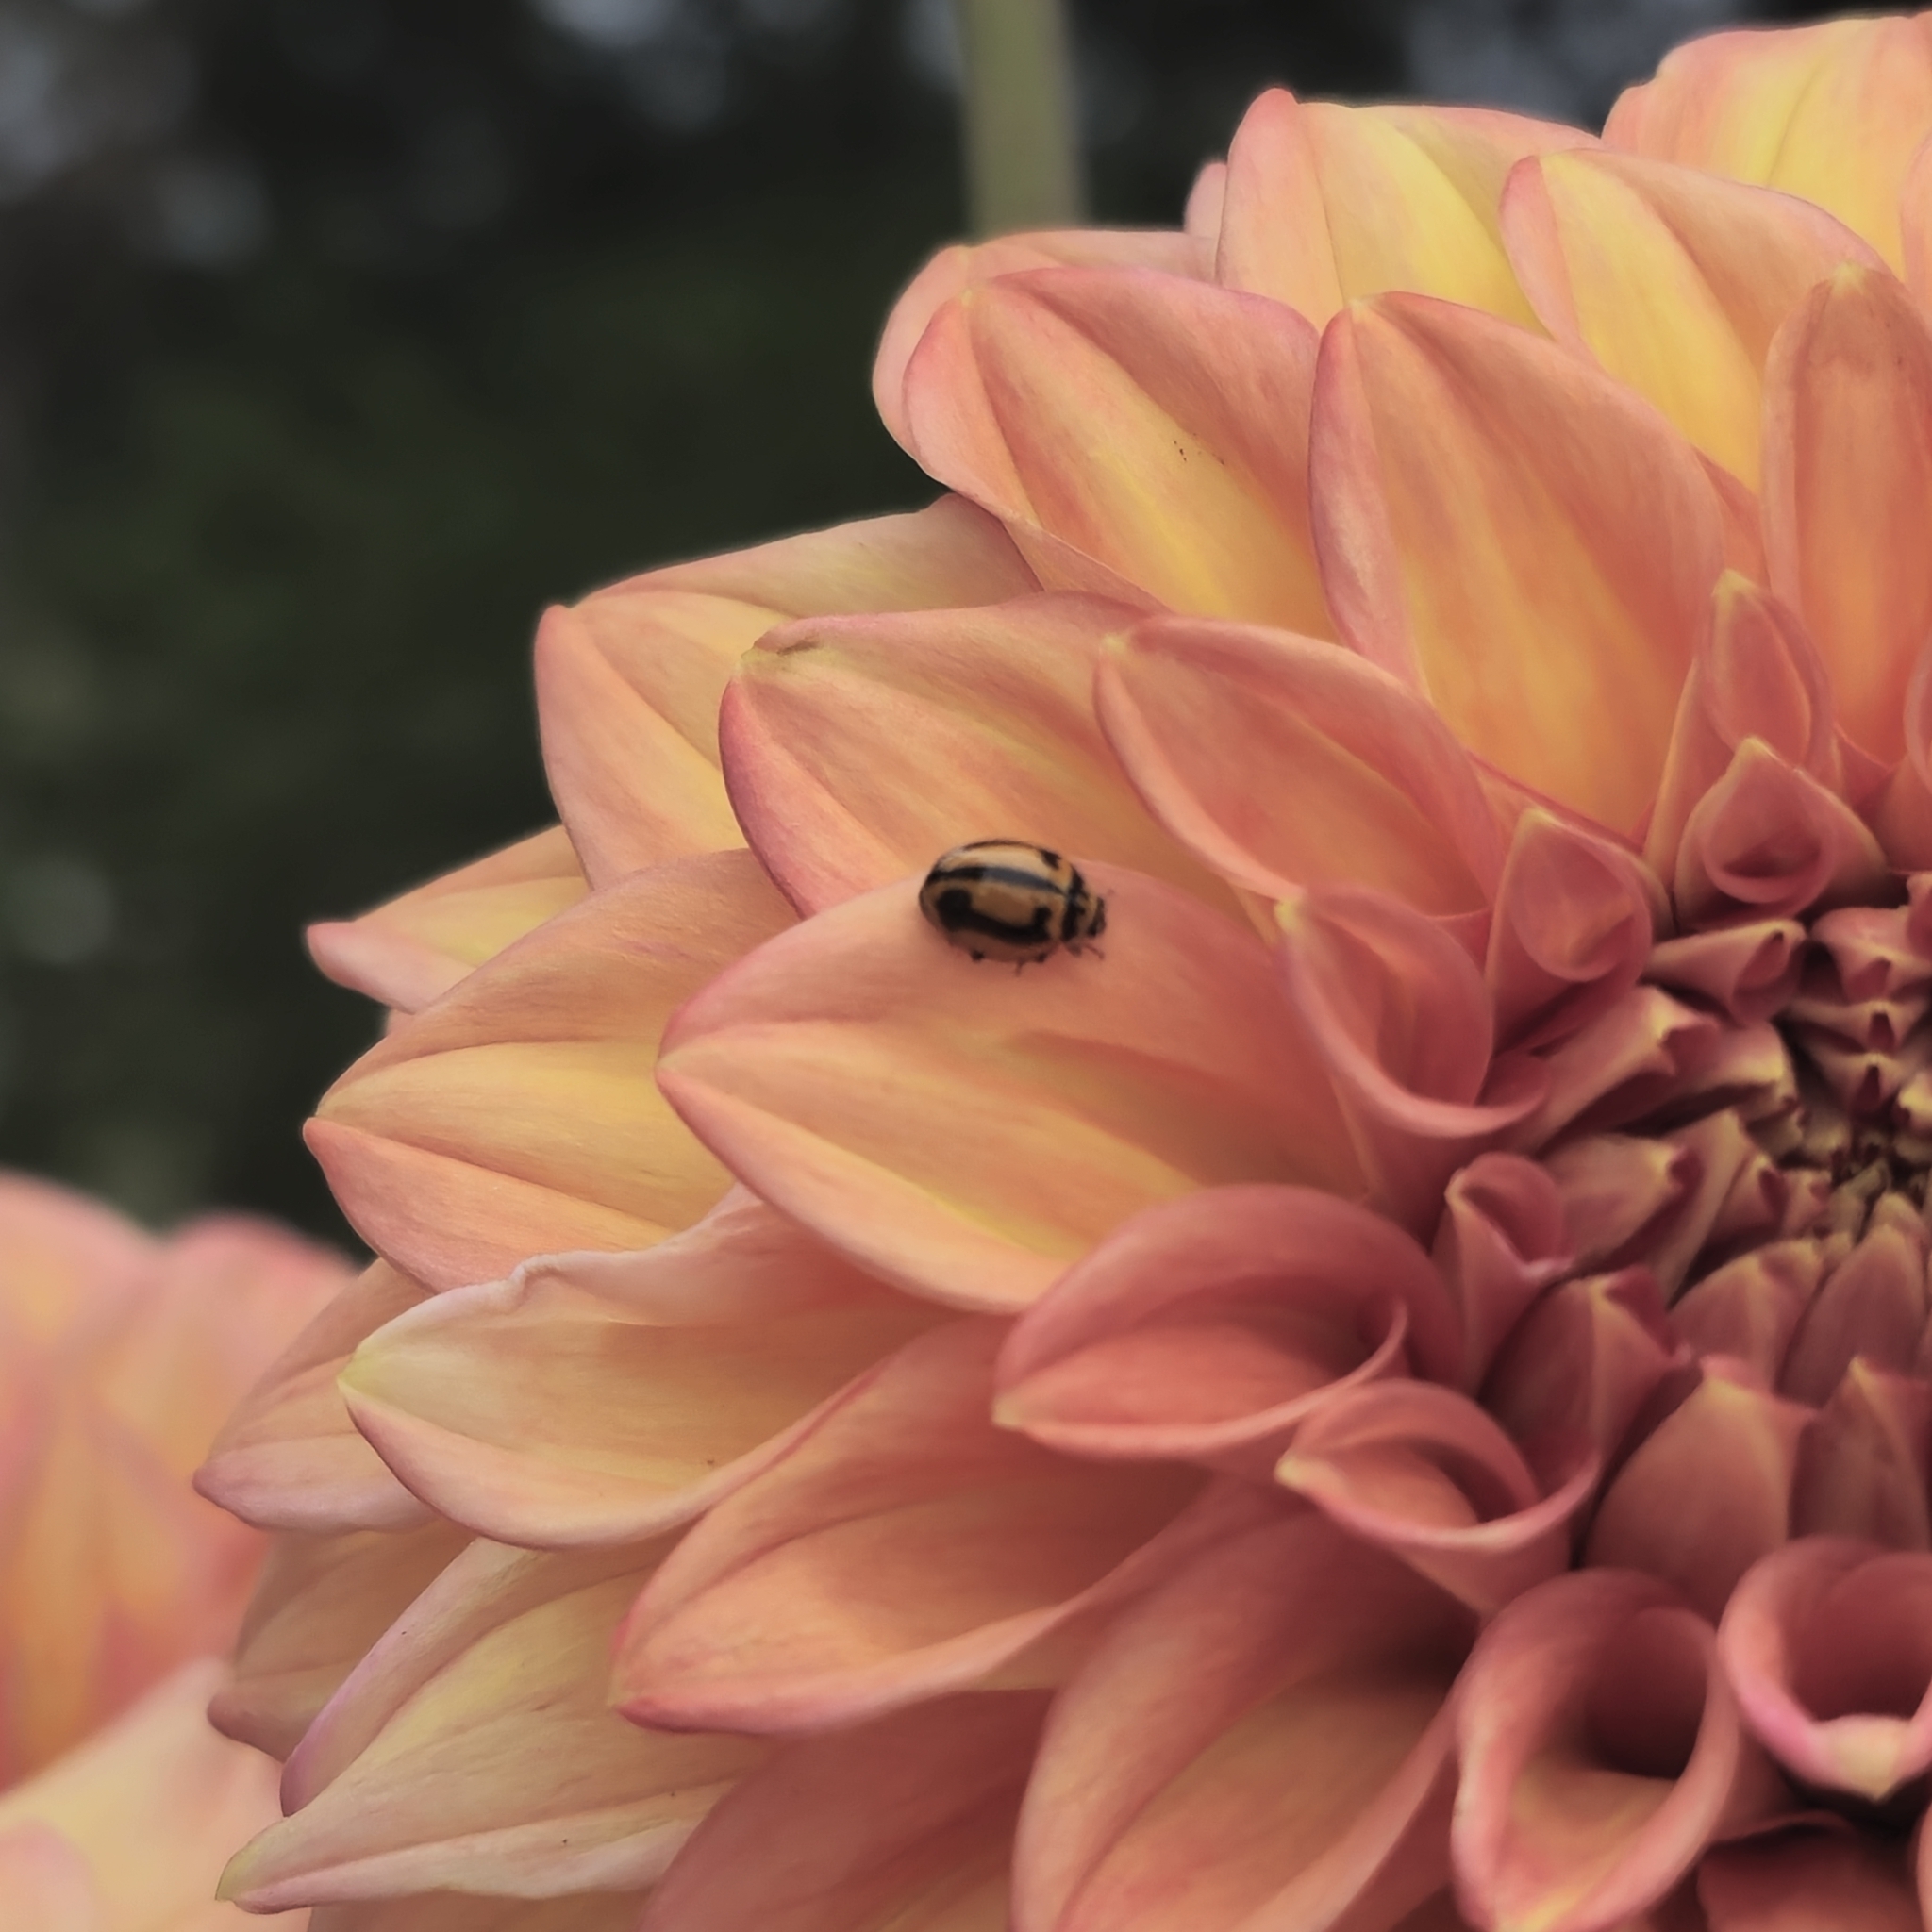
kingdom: Animalia
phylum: Arthropoda
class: Insecta
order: Coleoptera
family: Coccinellidae
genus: Micraspis
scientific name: Micraspis frenata
